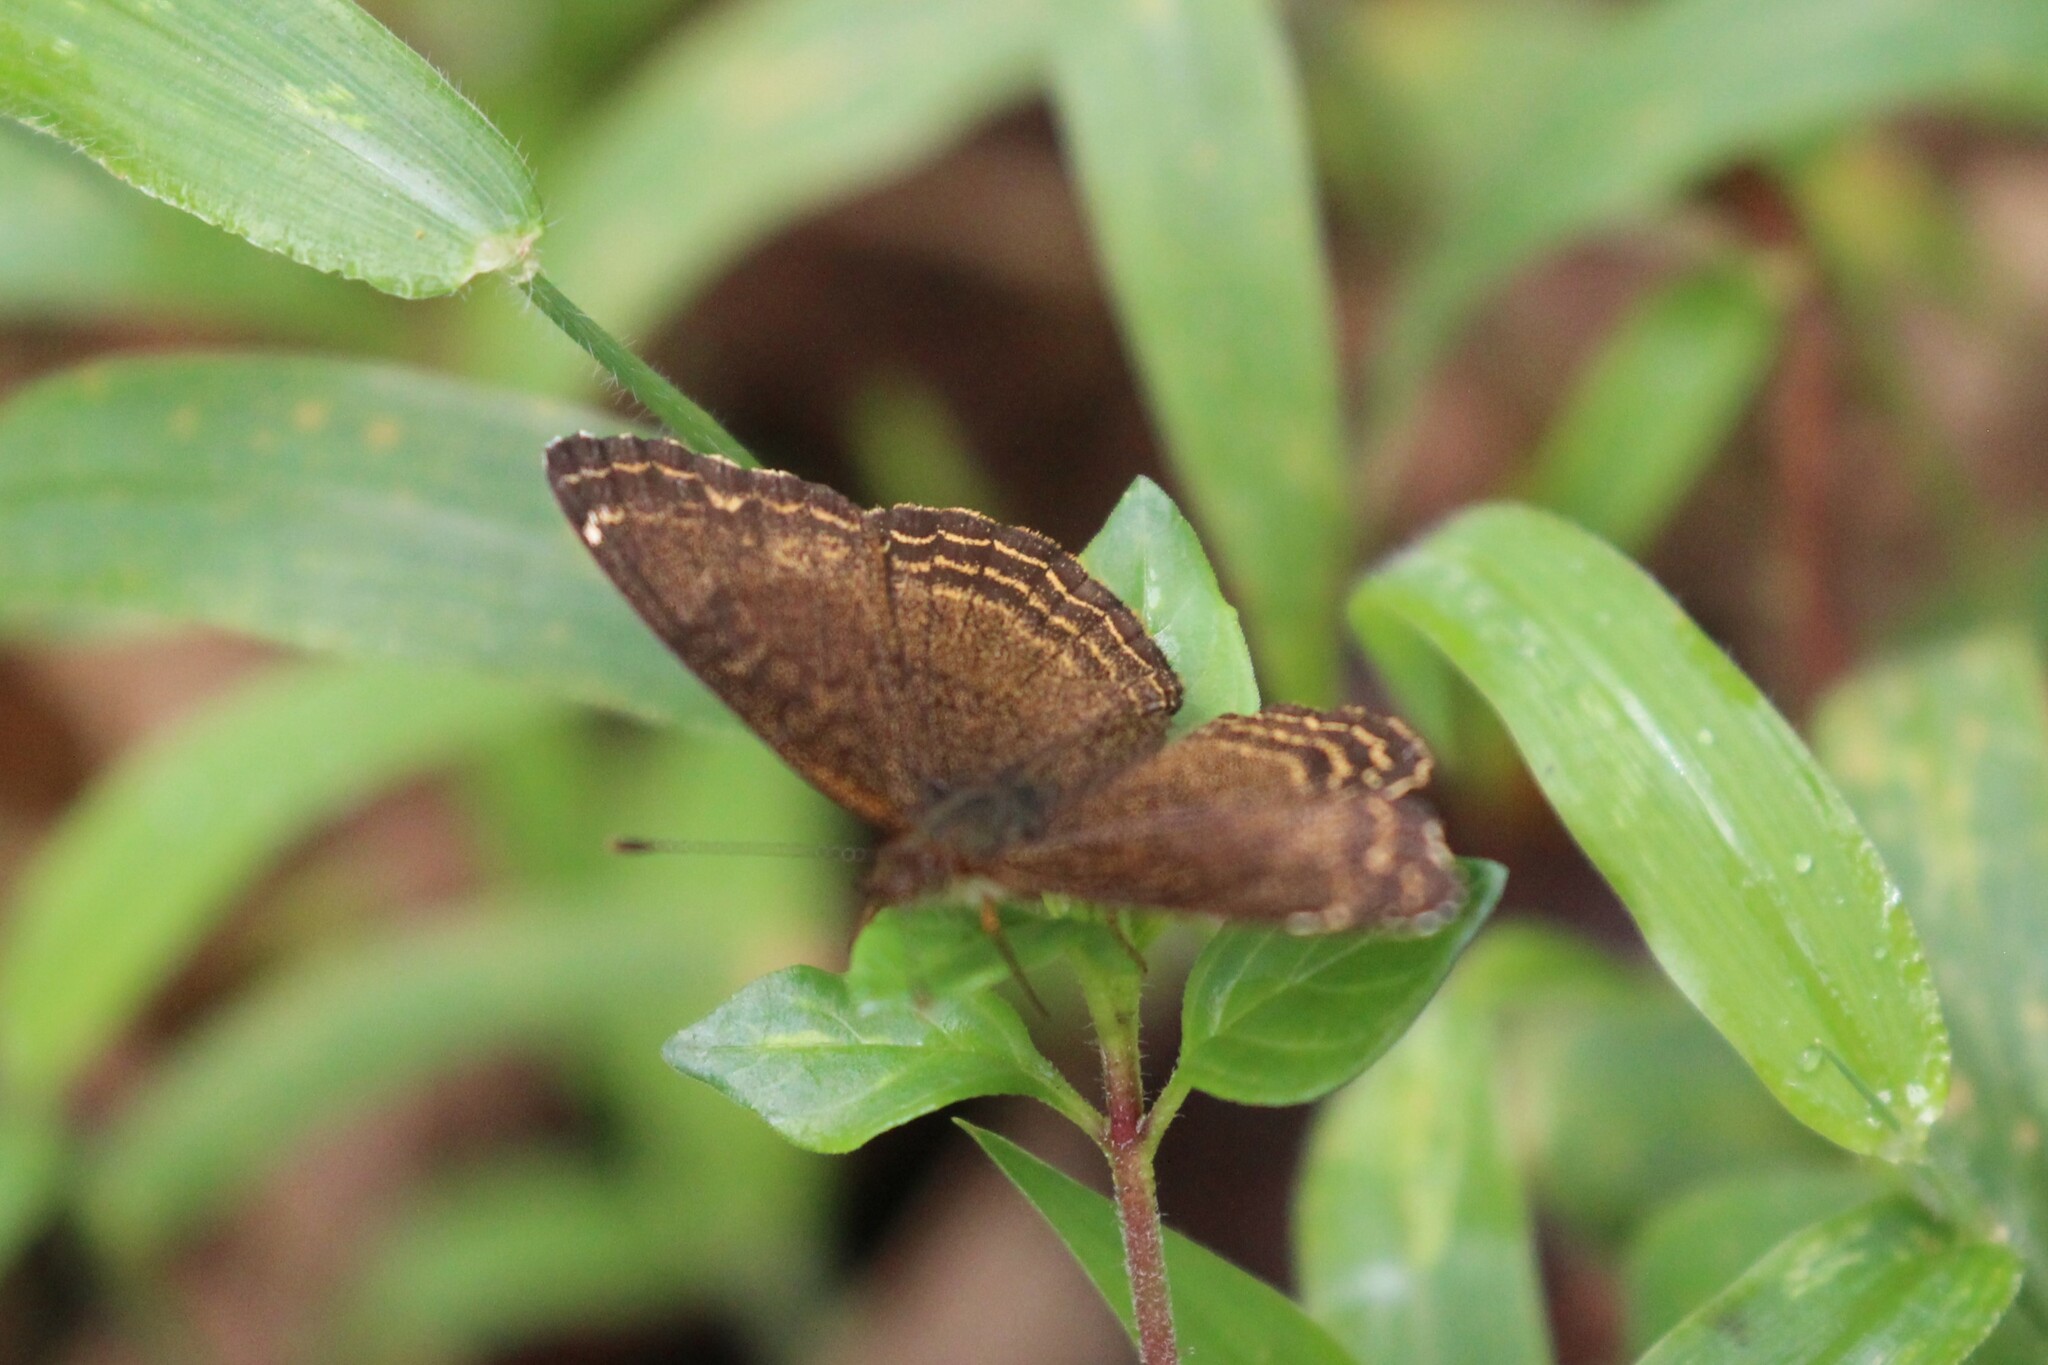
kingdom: Animalia
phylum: Arthropoda
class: Insecta
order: Lepidoptera
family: Nymphalidae
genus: Telenassa
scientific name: Telenassa delphia
